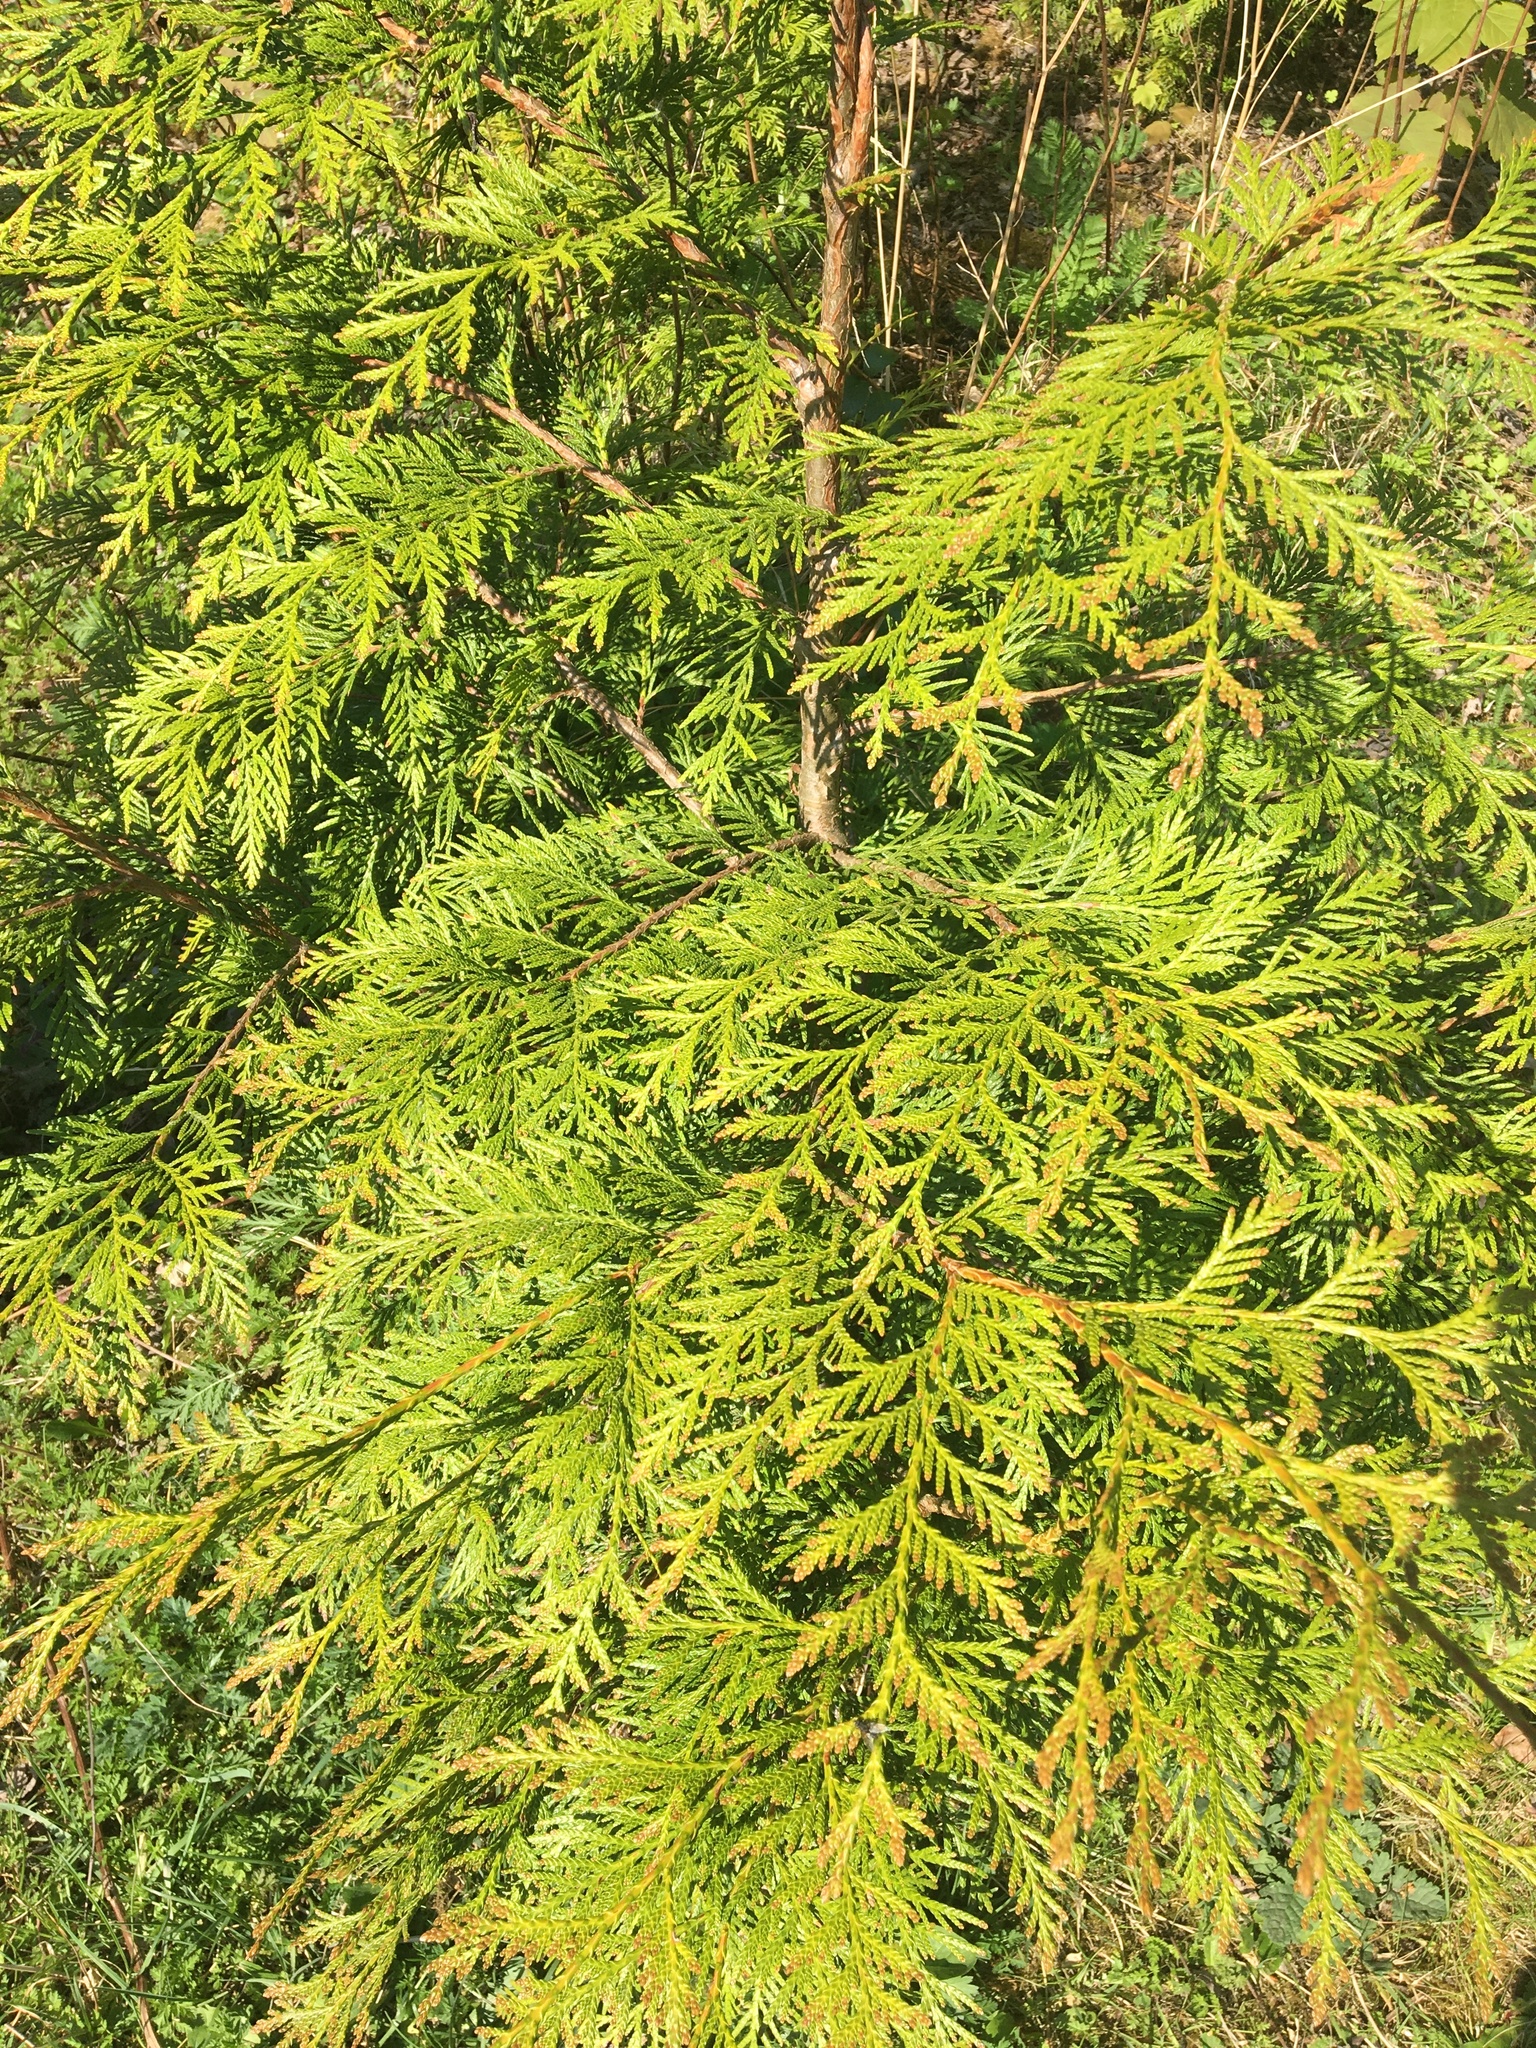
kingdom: Plantae
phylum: Tracheophyta
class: Pinopsida
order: Pinales
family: Cupressaceae
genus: Thuja
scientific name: Thuja plicata
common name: Western red-cedar
